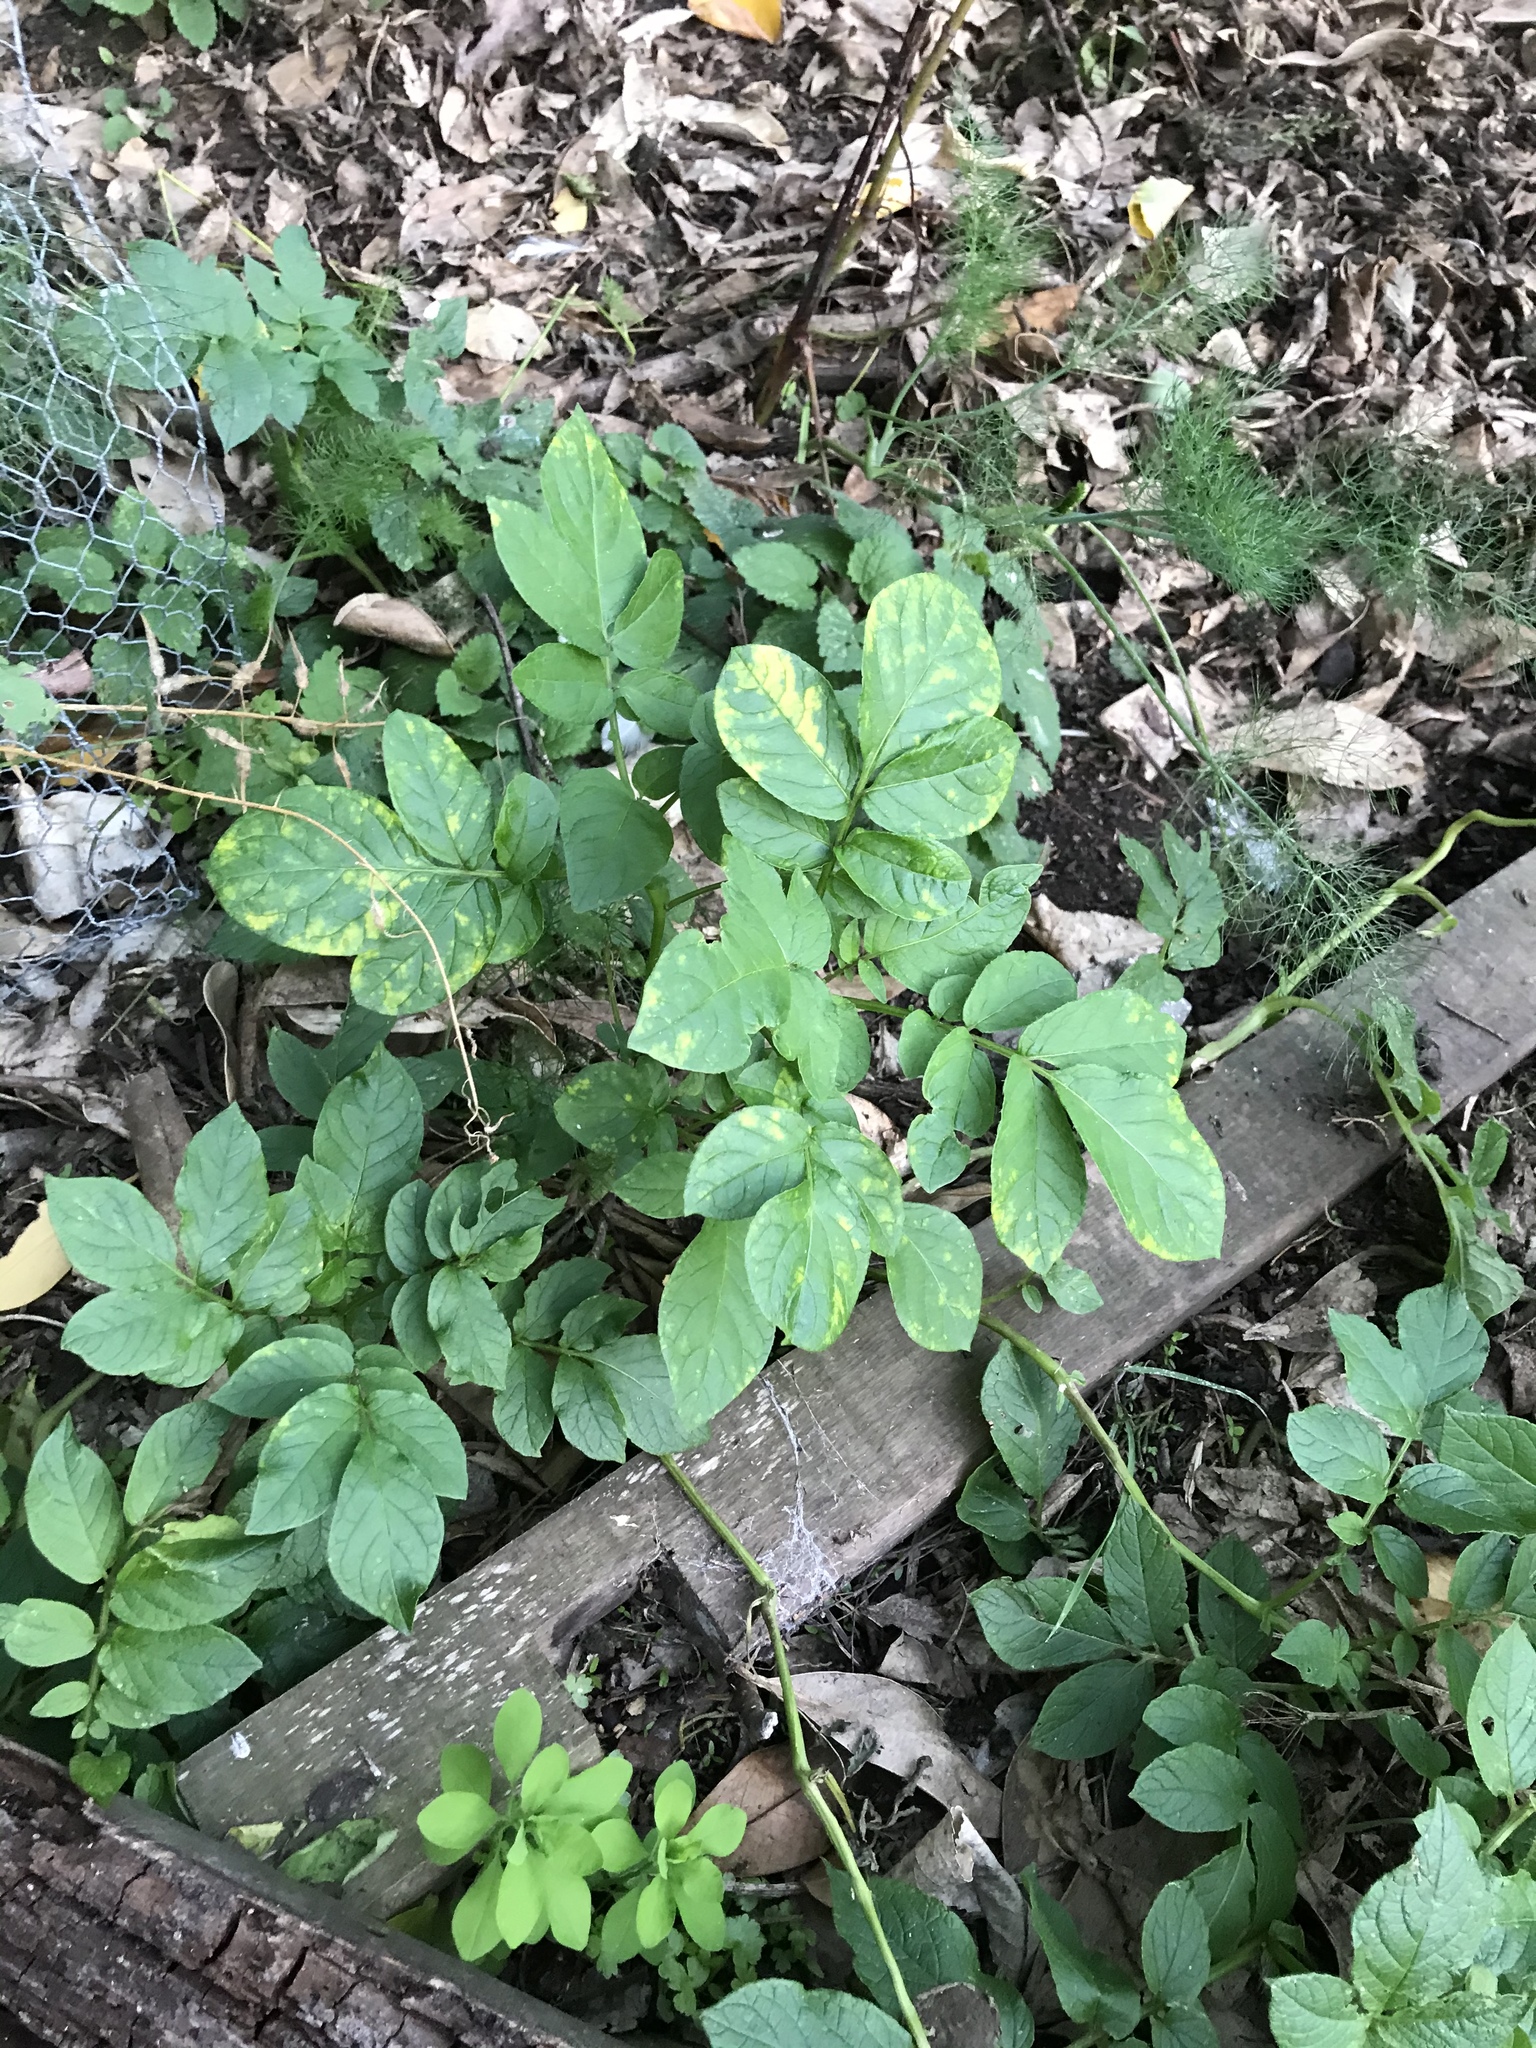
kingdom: Plantae
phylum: Tracheophyta
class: Magnoliopsida
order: Solanales
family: Solanaceae
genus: Solanum
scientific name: Solanum tuberosum
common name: Potato
